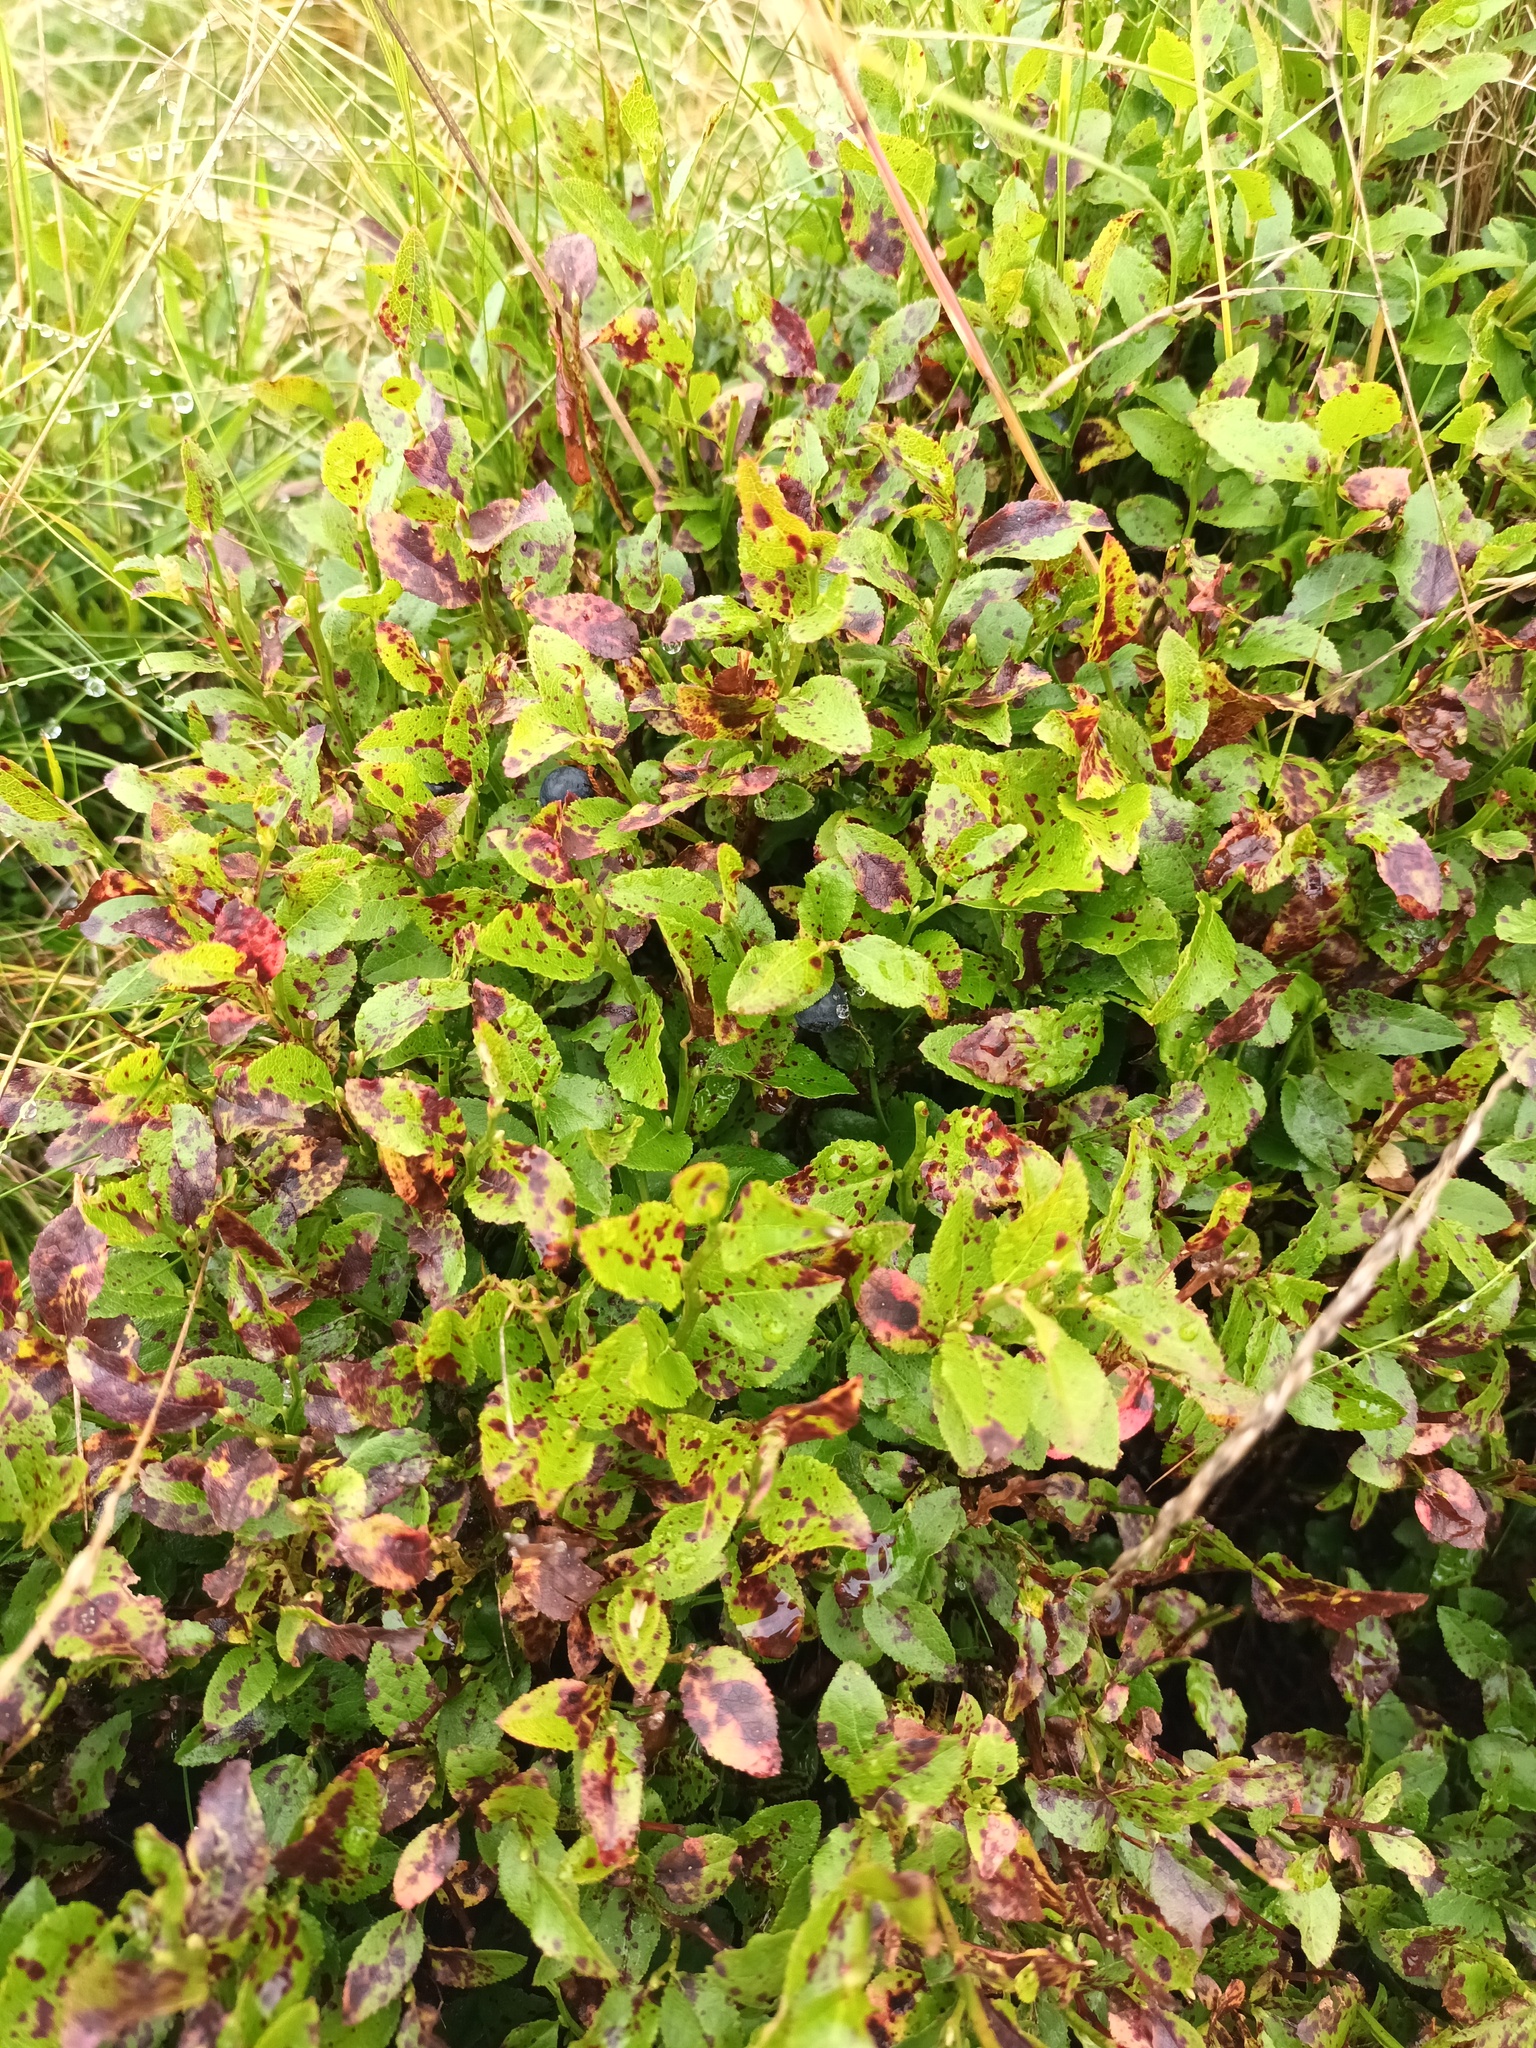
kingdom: Plantae
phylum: Tracheophyta
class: Magnoliopsida
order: Ericales
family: Ericaceae
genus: Vaccinium
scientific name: Vaccinium myrtillus
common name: Bilberry
